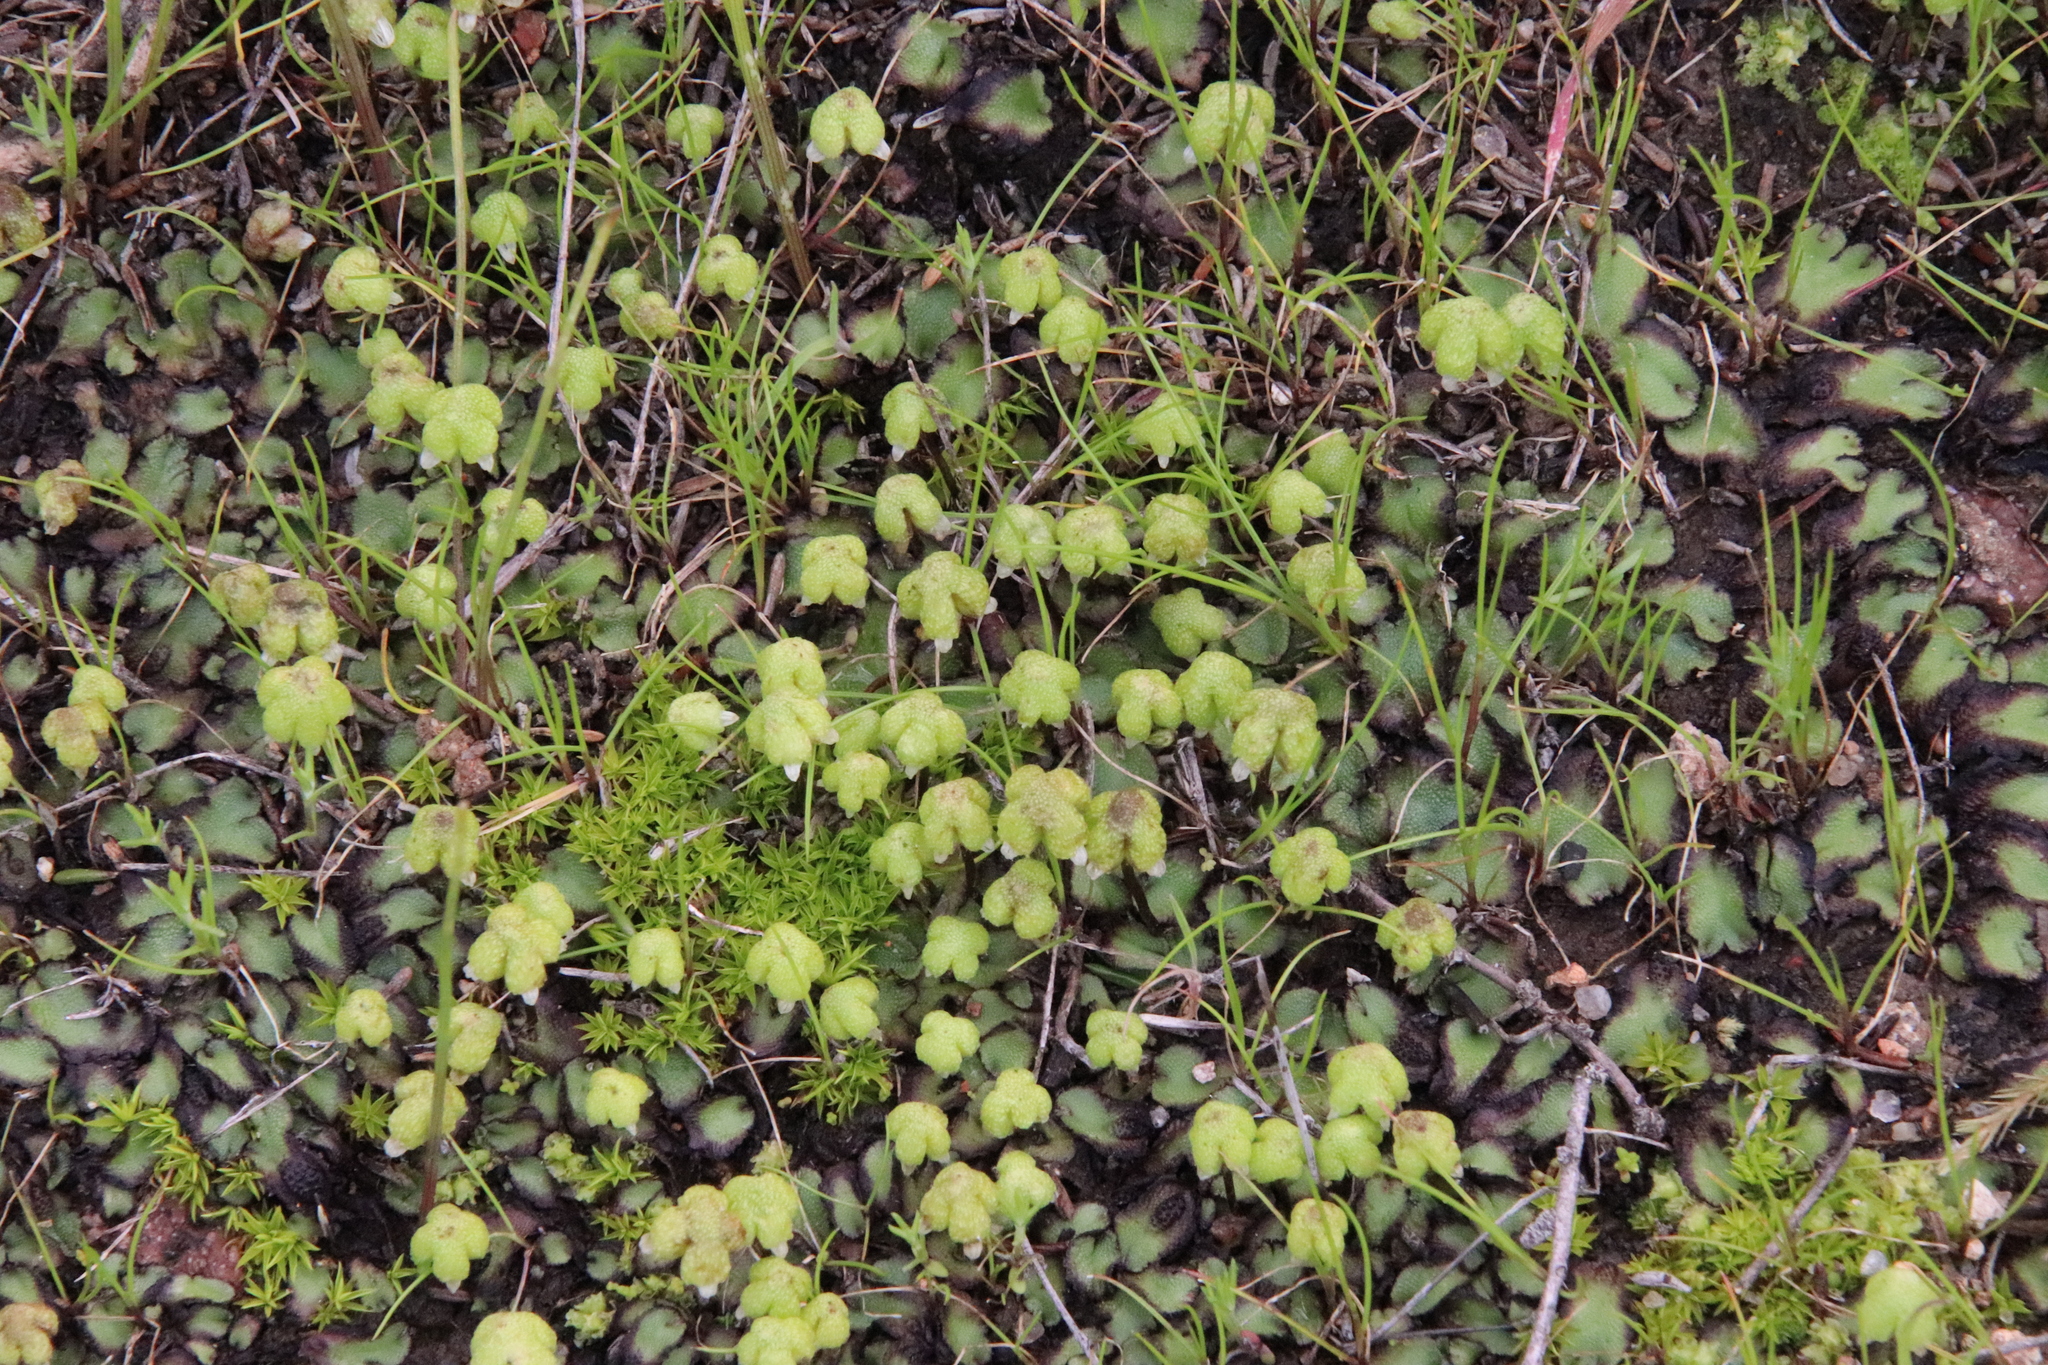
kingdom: Plantae
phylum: Marchantiophyta
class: Marchantiopsida
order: Marchantiales
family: Aytoniaceae
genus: Asterella
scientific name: Asterella californica
